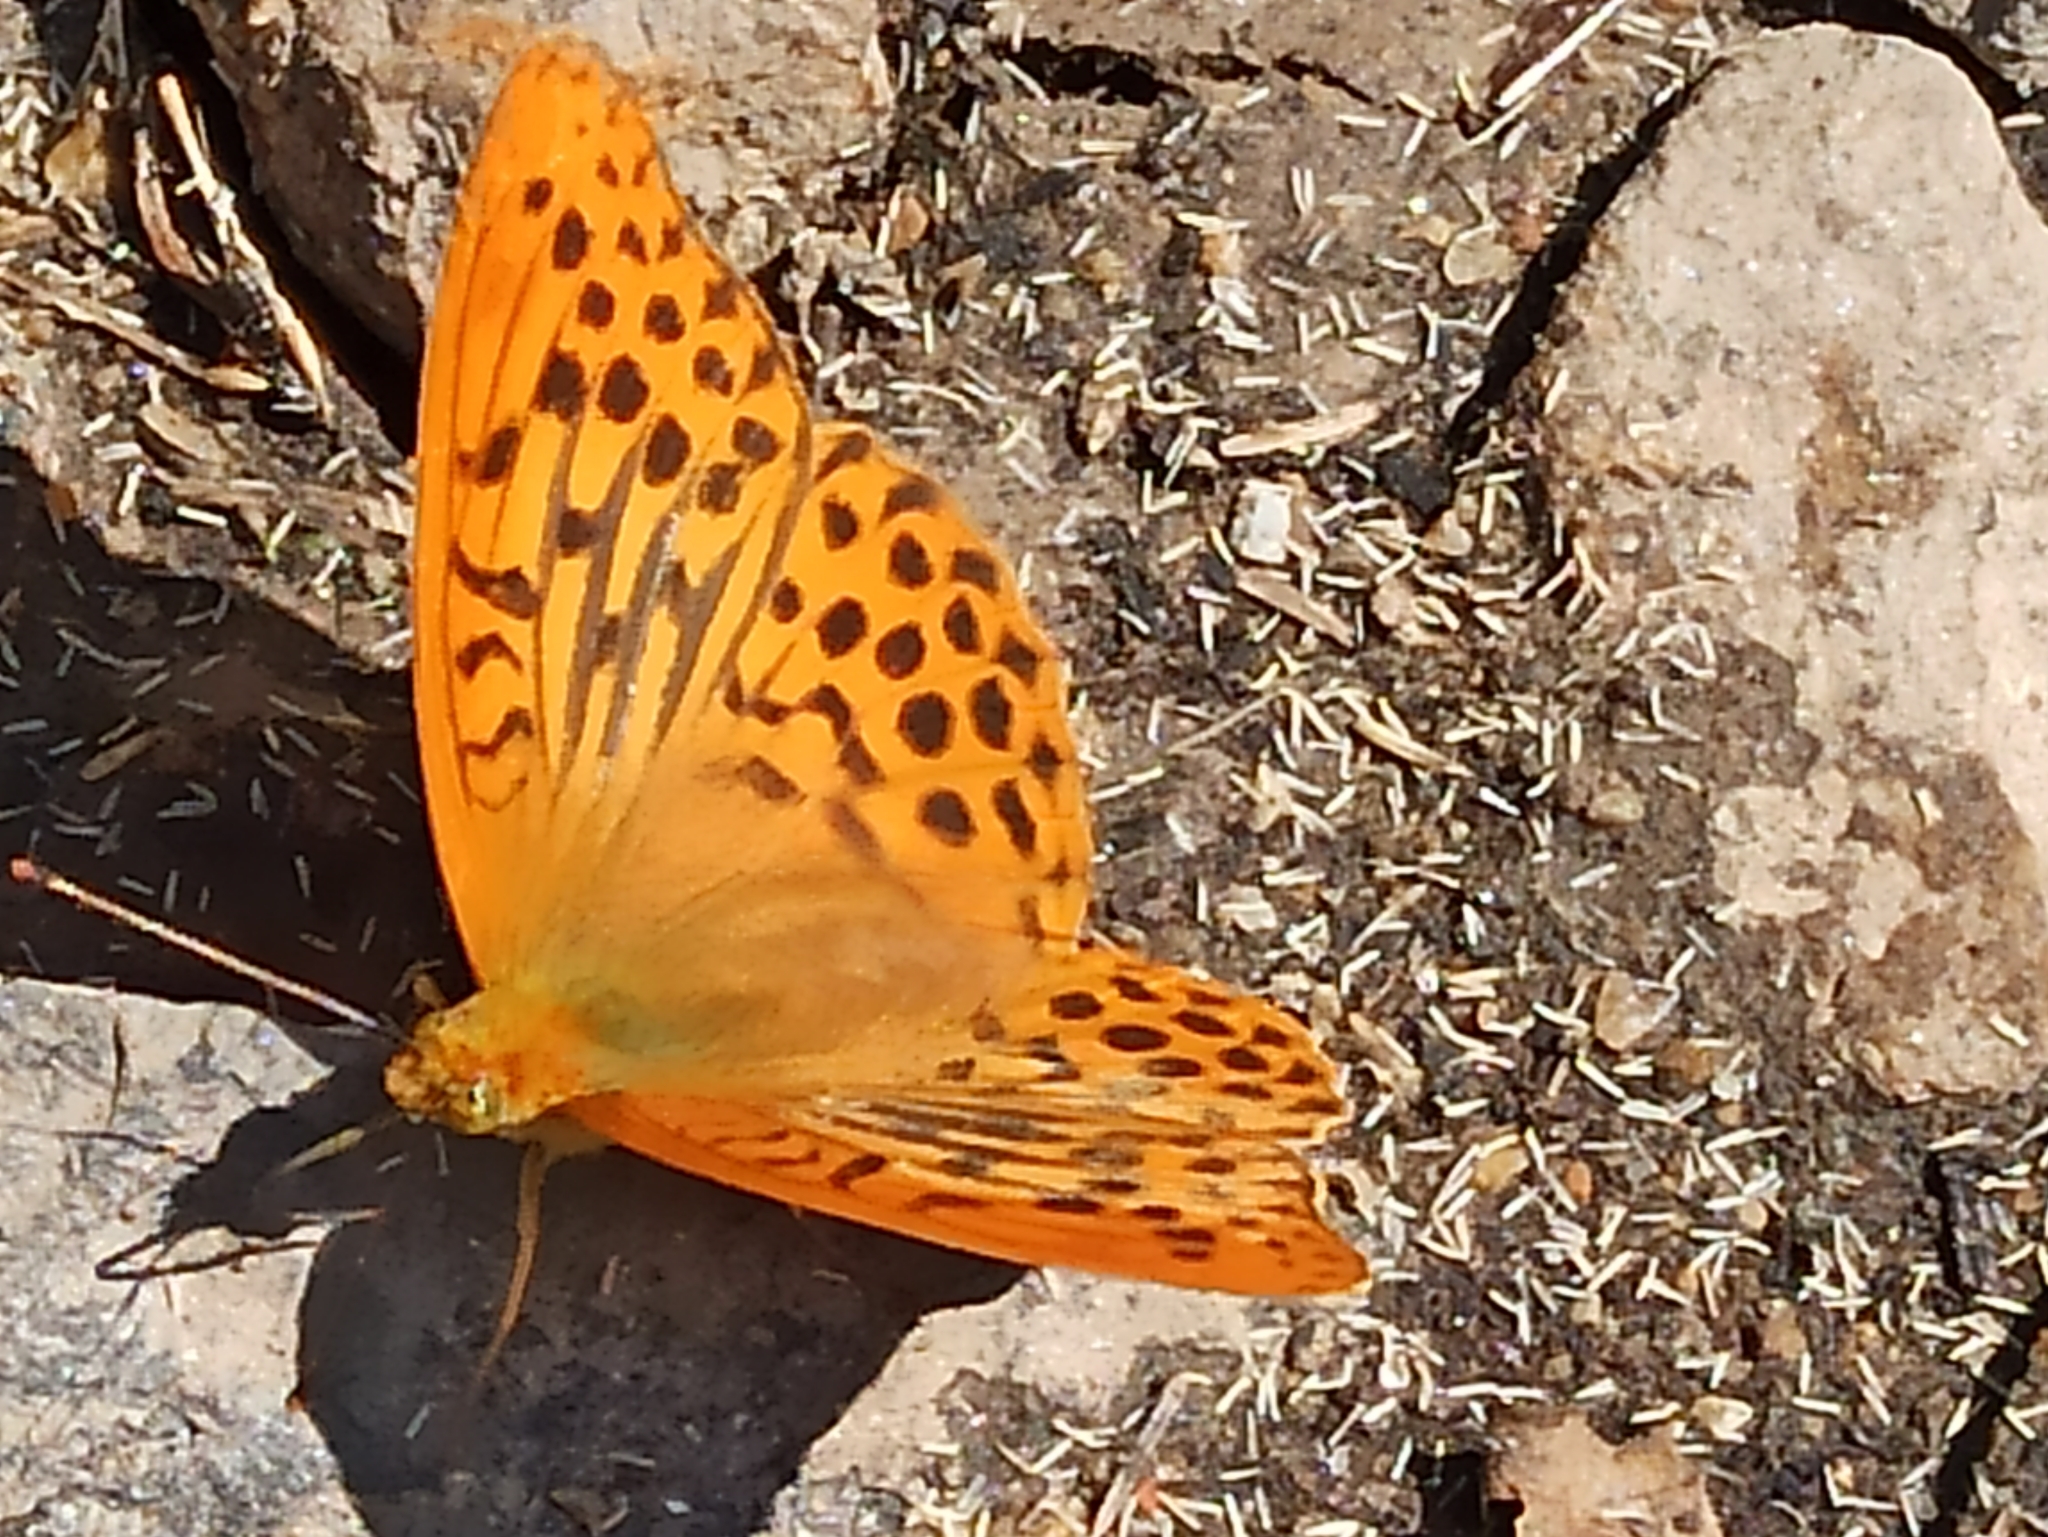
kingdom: Animalia
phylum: Arthropoda
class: Insecta
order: Lepidoptera
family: Nymphalidae
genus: Argynnis
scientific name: Argynnis paphia
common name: Silver-washed fritillary
